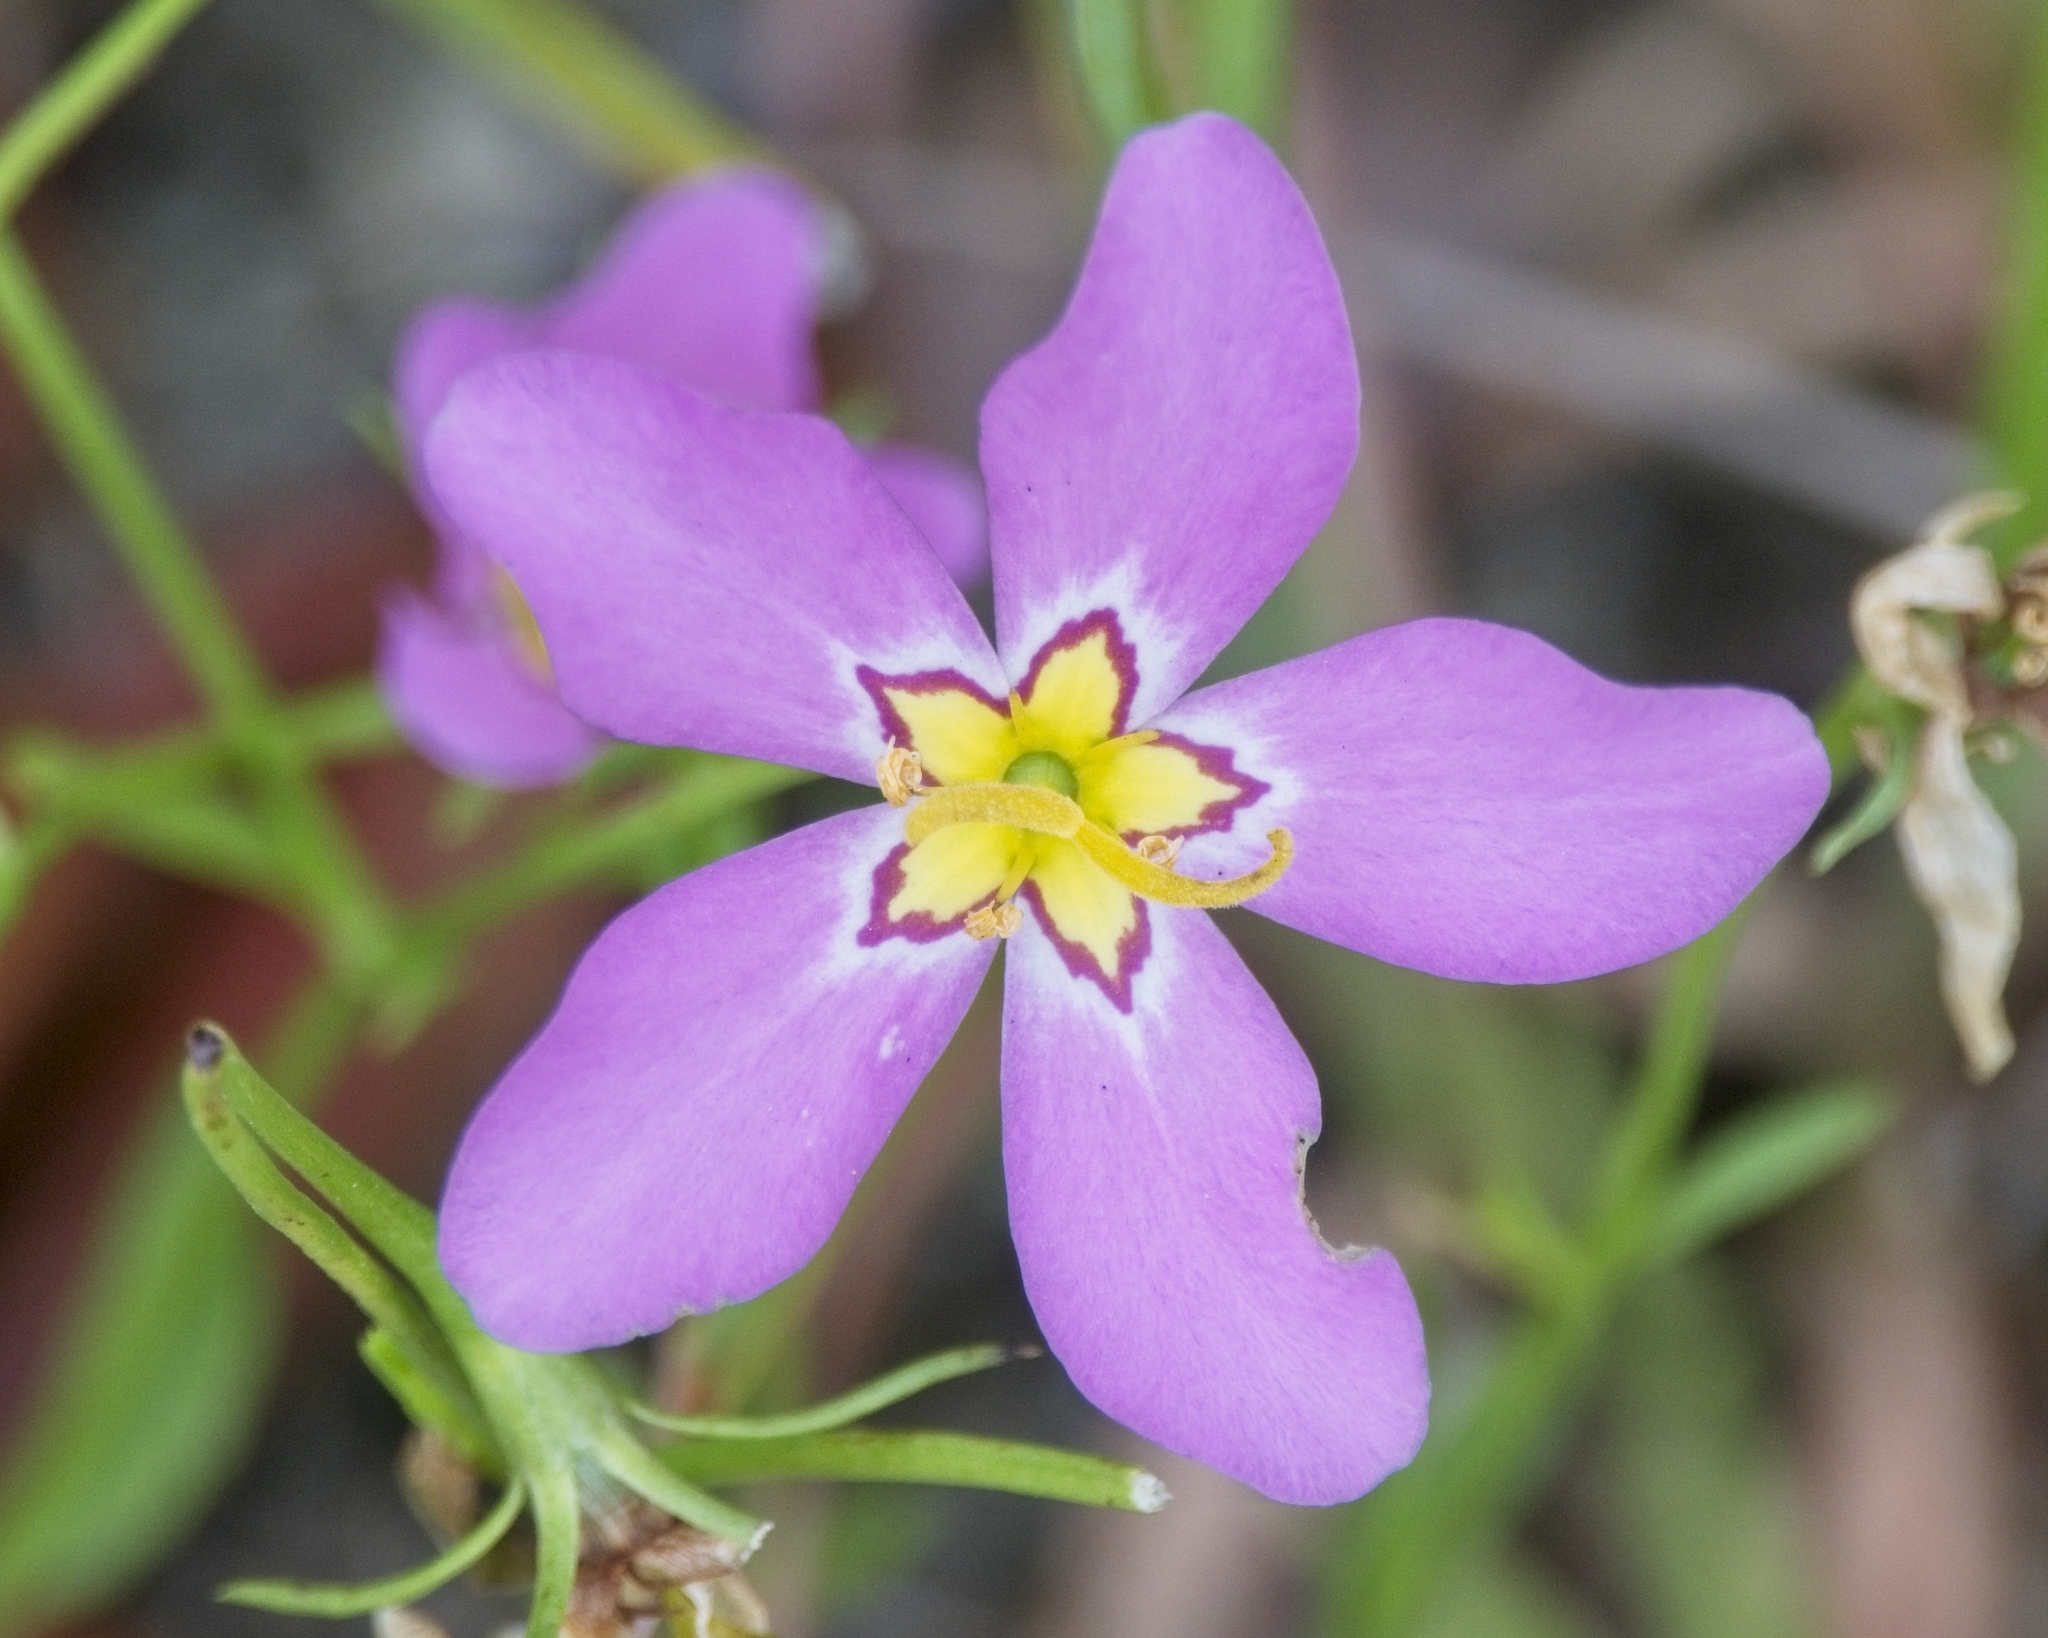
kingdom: Plantae
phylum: Tracheophyta
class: Magnoliopsida
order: Gentianales
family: Gentianaceae
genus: Sabatia
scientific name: Sabatia stellaris
